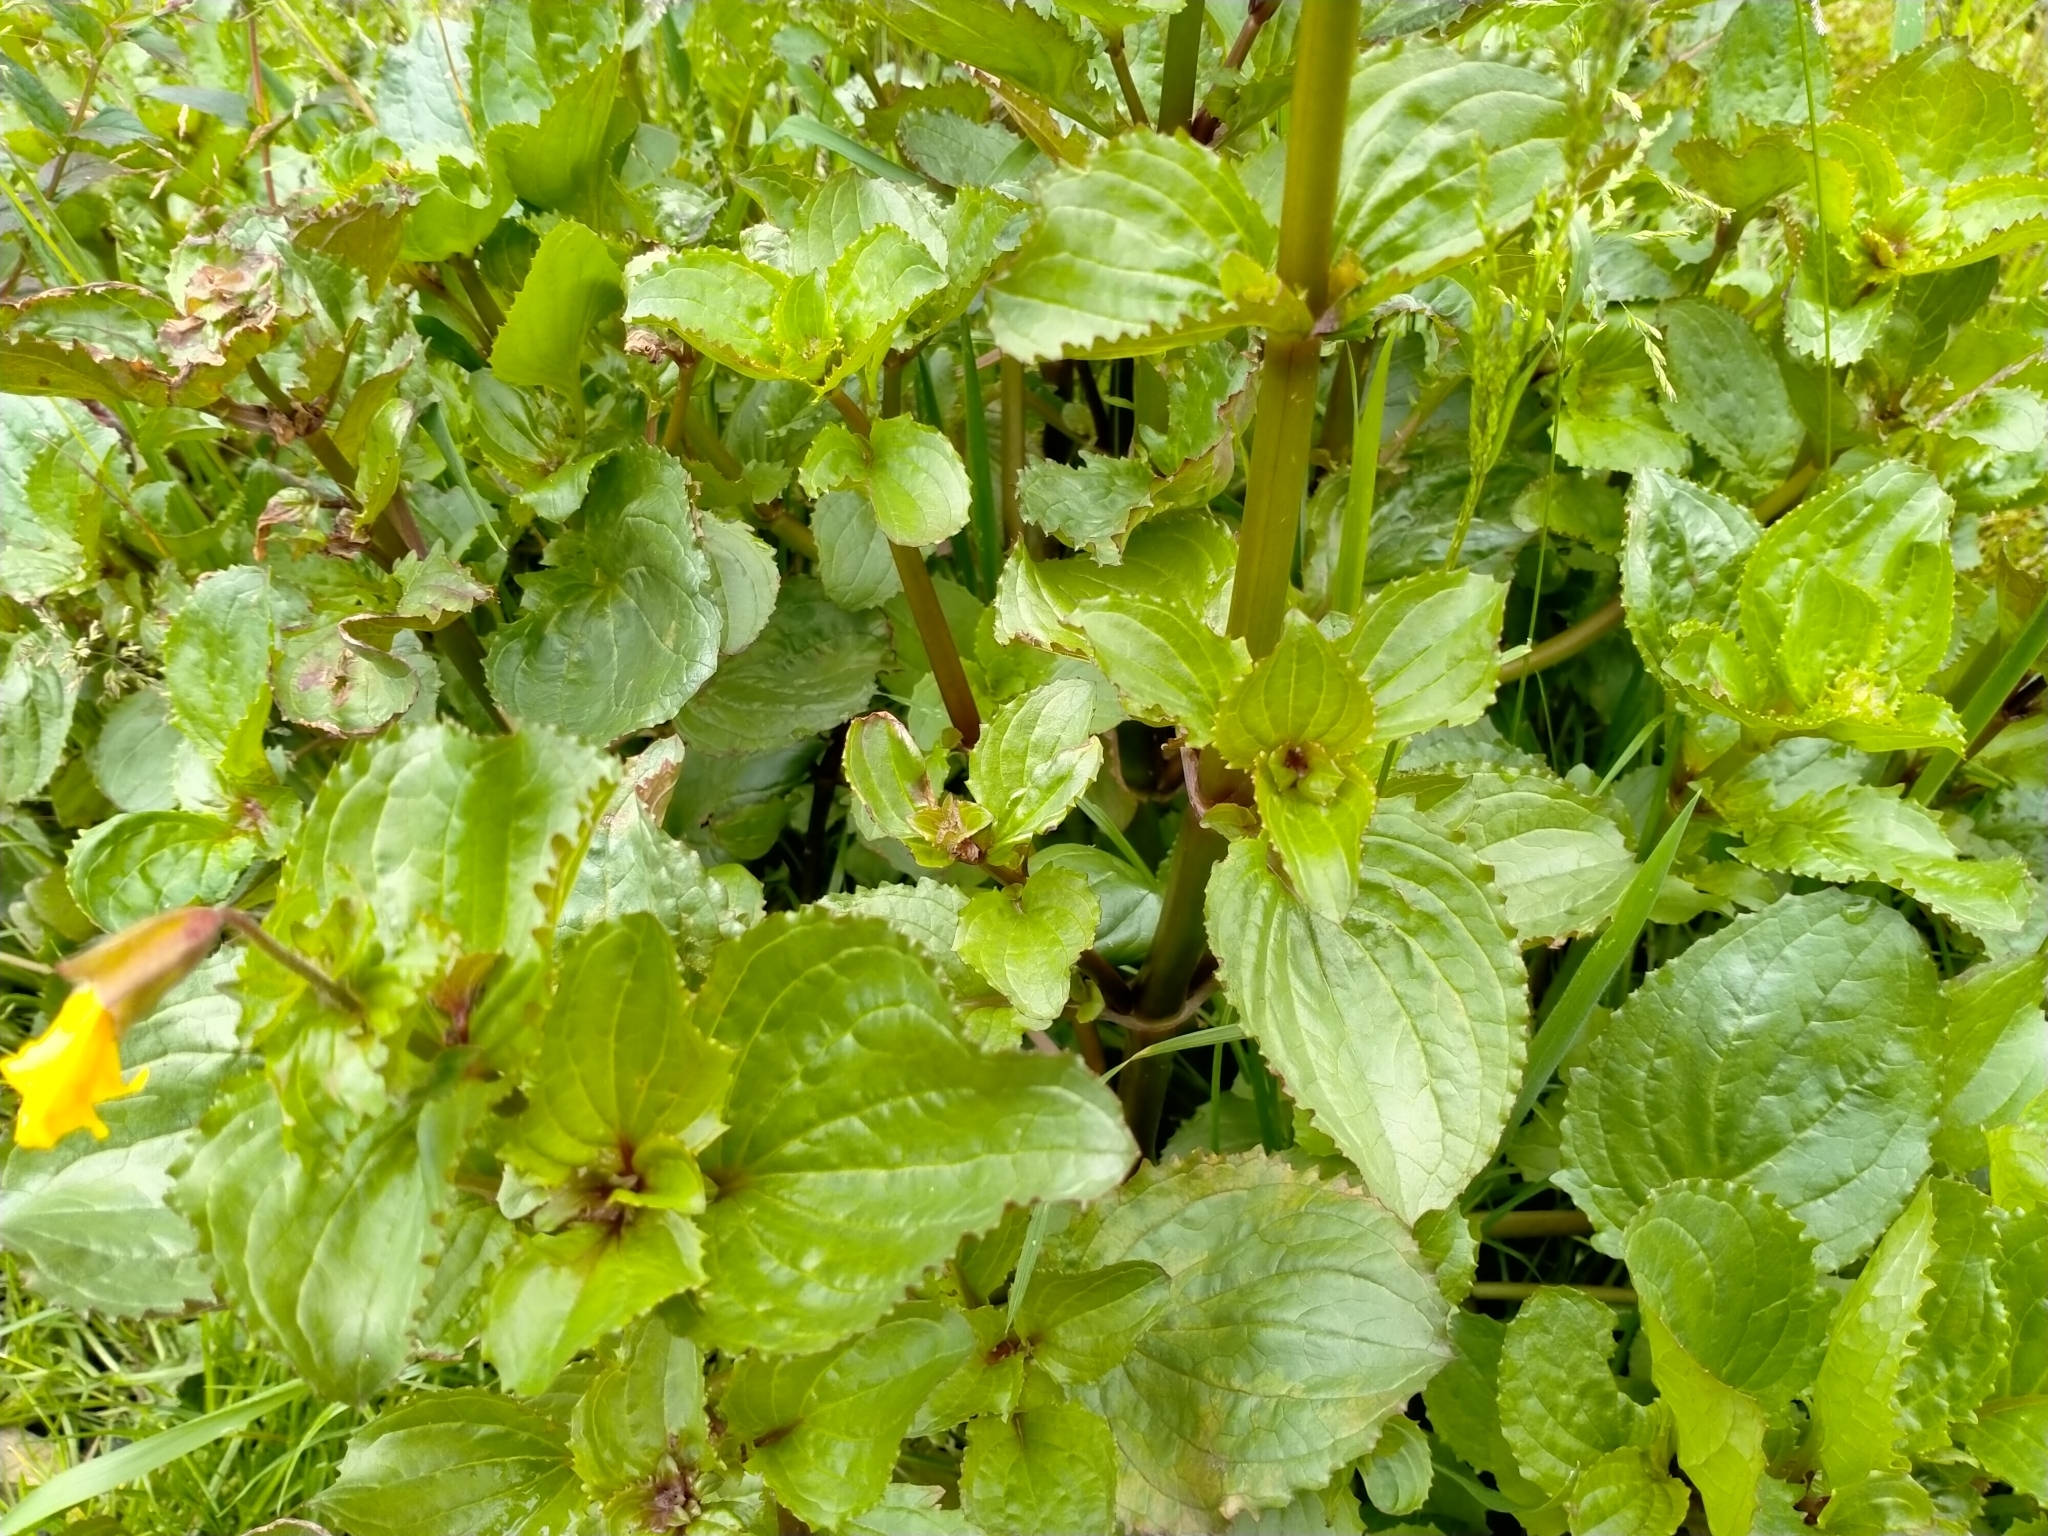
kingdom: Plantae
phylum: Tracheophyta
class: Magnoliopsida
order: Lamiales
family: Phrymaceae
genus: Erythranthe
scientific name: Erythranthe guttata
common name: Monkeyflower
